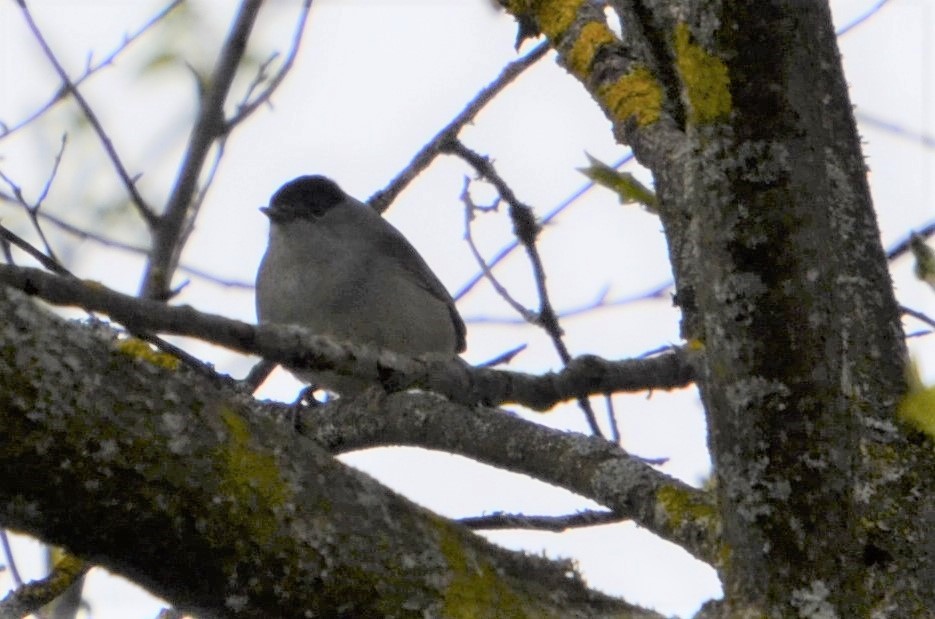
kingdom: Animalia
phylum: Chordata
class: Aves
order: Passeriformes
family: Sylviidae
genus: Sylvia
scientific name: Sylvia atricapilla
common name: Eurasian blackcap
